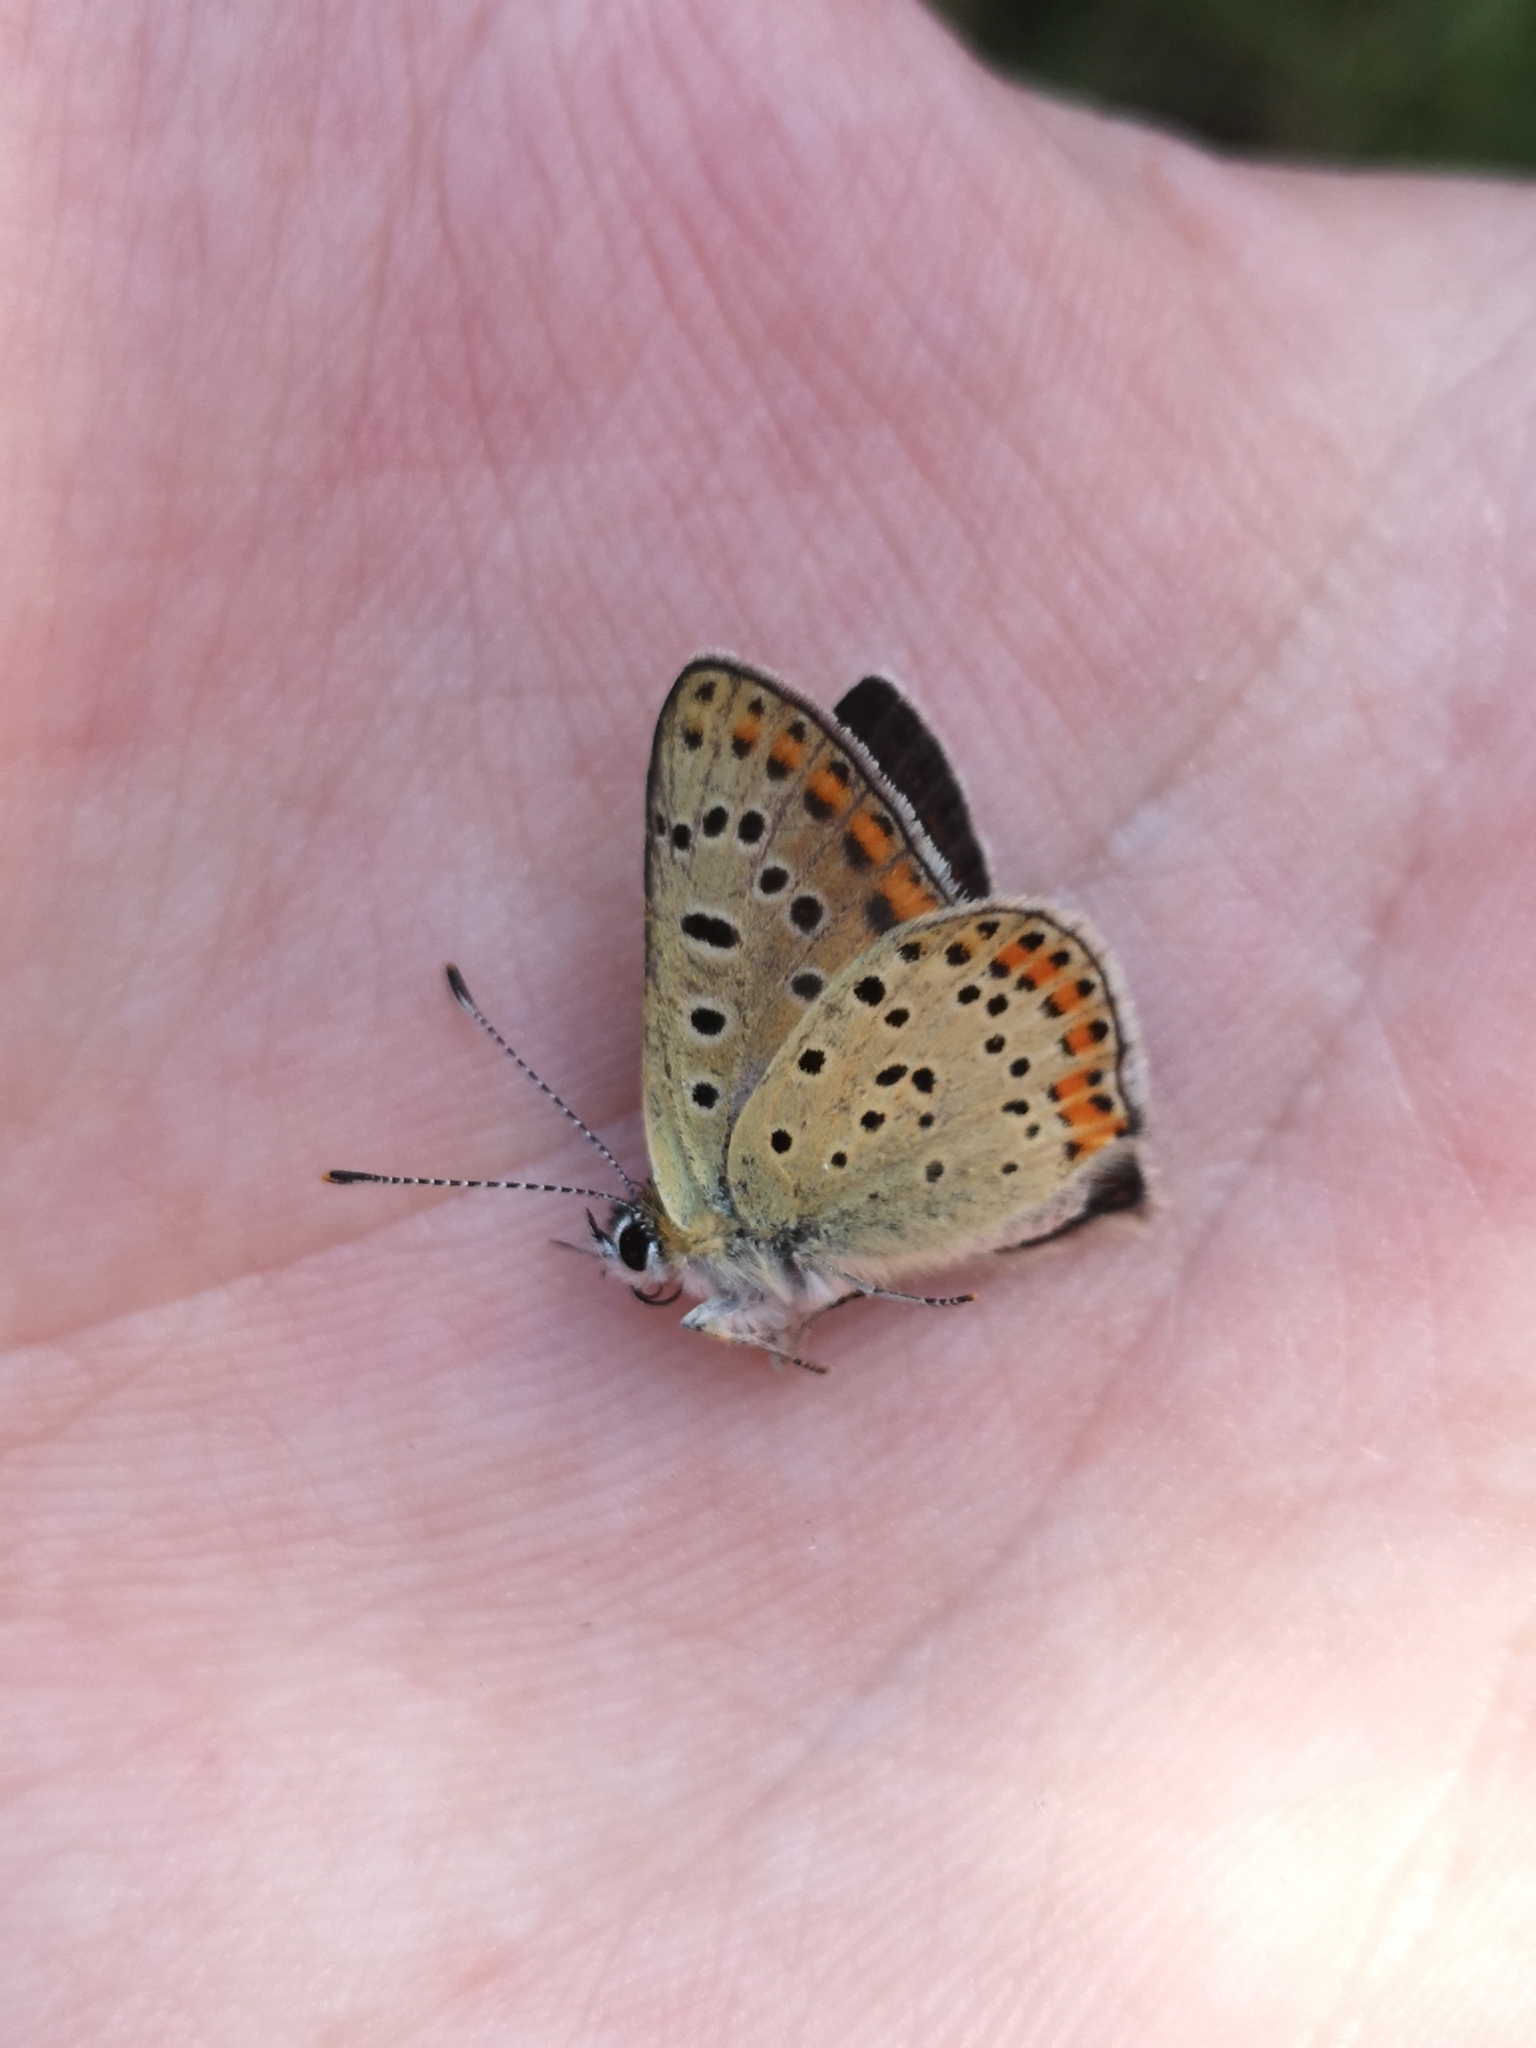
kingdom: Animalia
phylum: Arthropoda
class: Insecta
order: Lepidoptera
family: Lycaenidae
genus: Loweia
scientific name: Loweia tityrus
